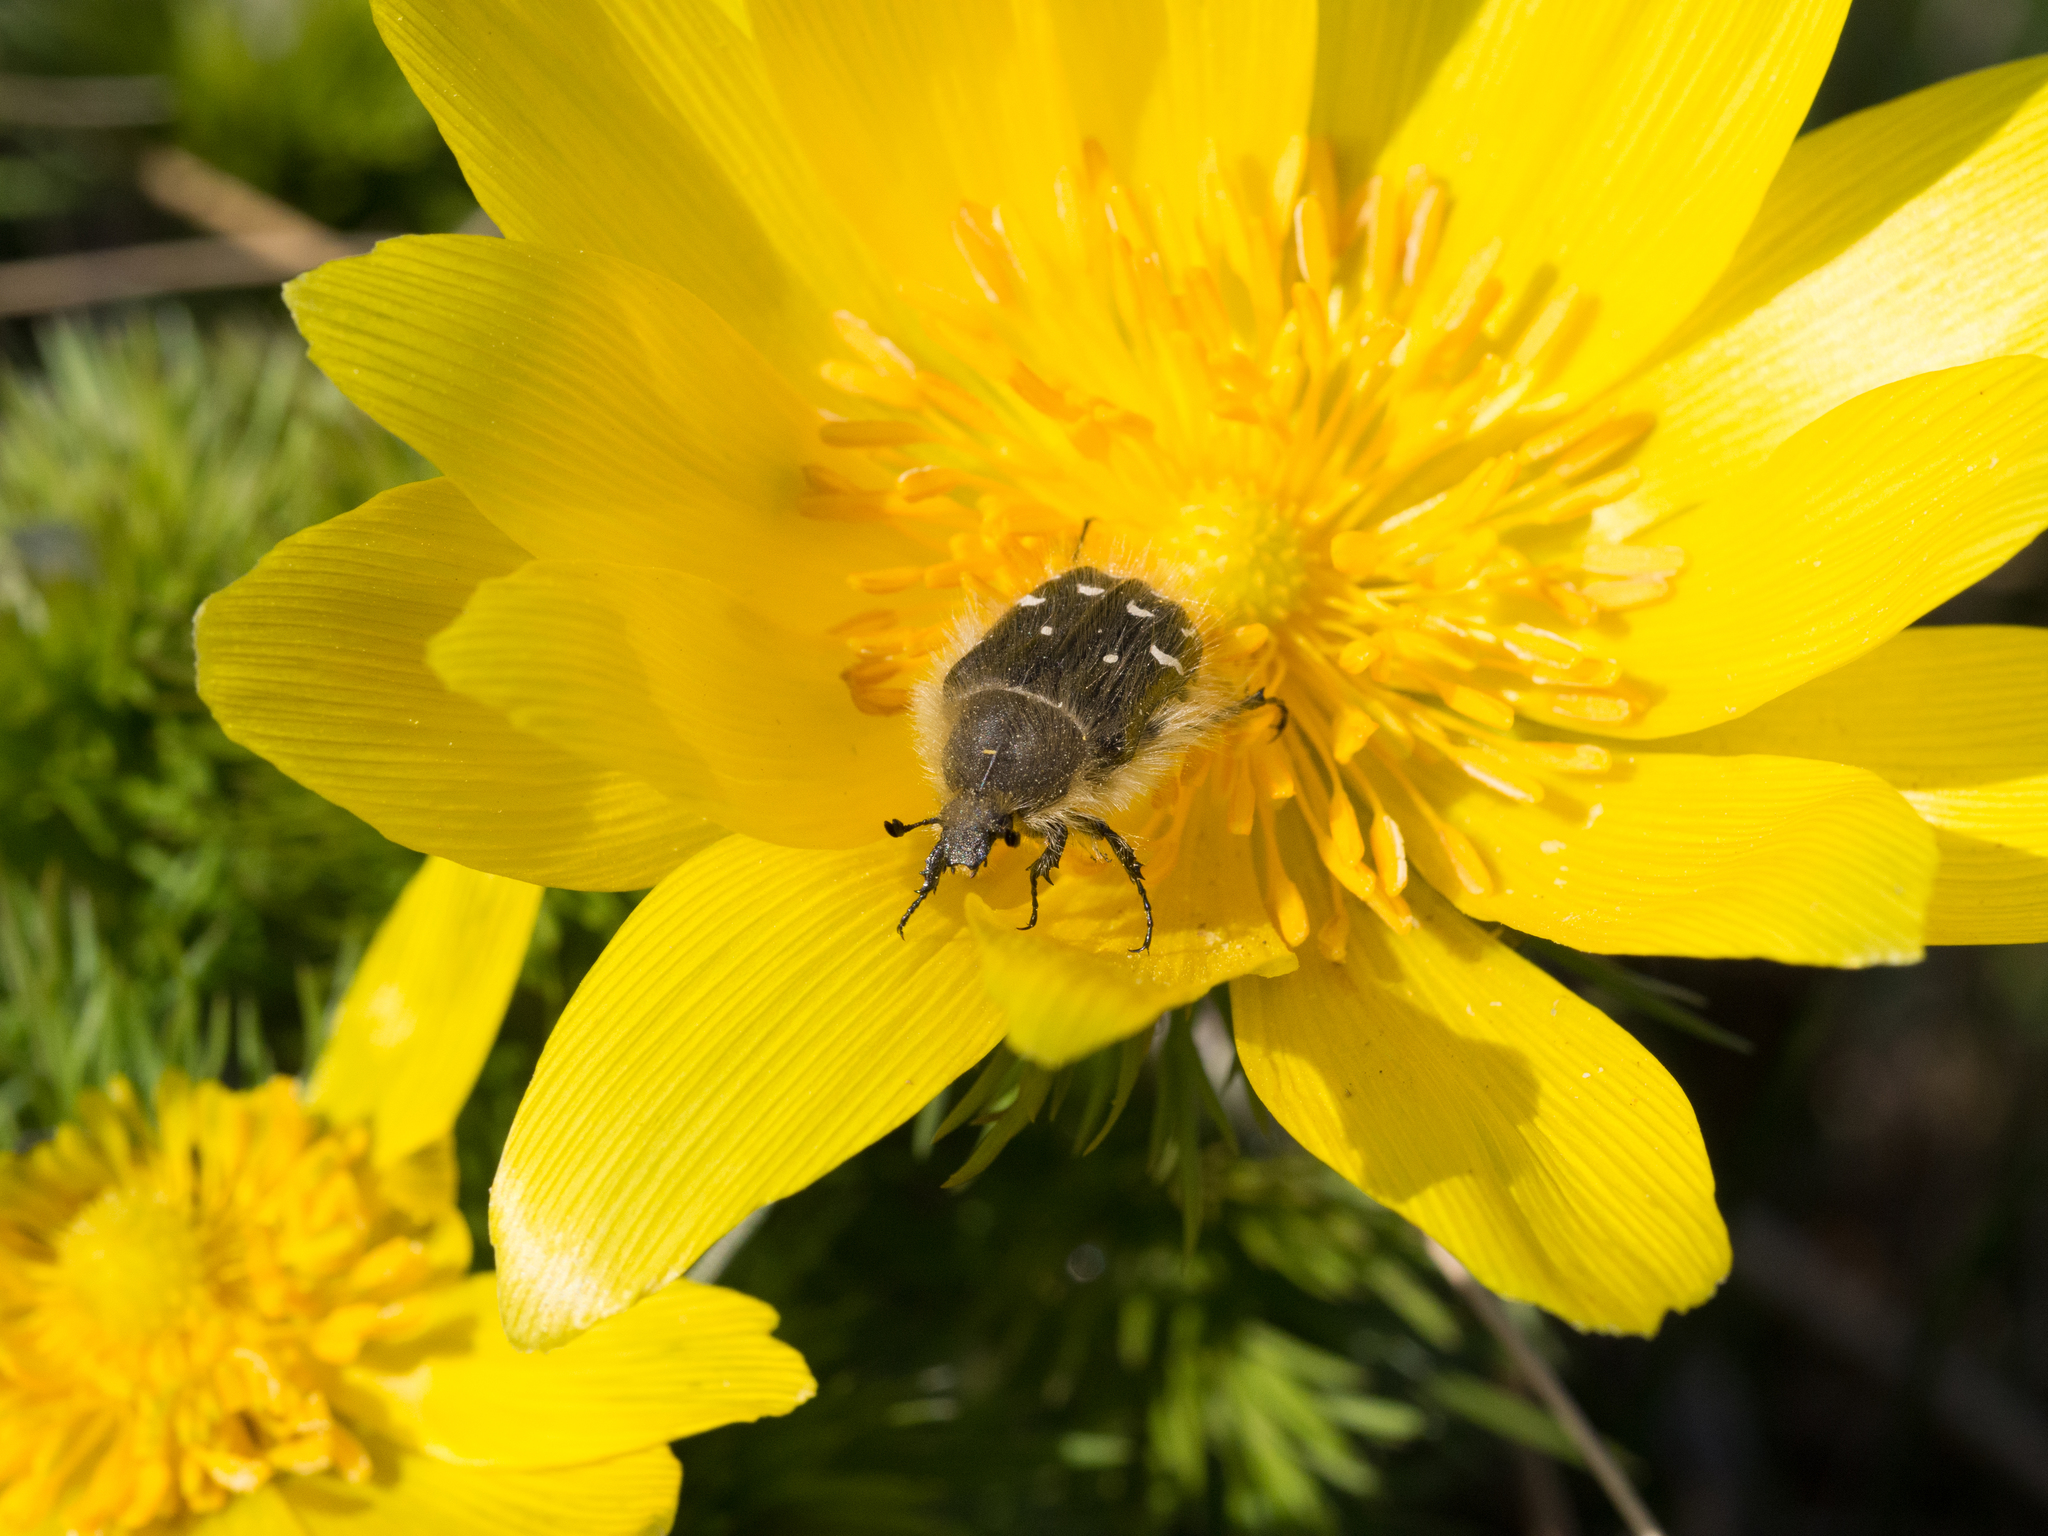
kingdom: Animalia
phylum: Arthropoda
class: Insecta
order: Coleoptera
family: Scarabaeidae
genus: Tropinota
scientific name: Tropinota hirta
